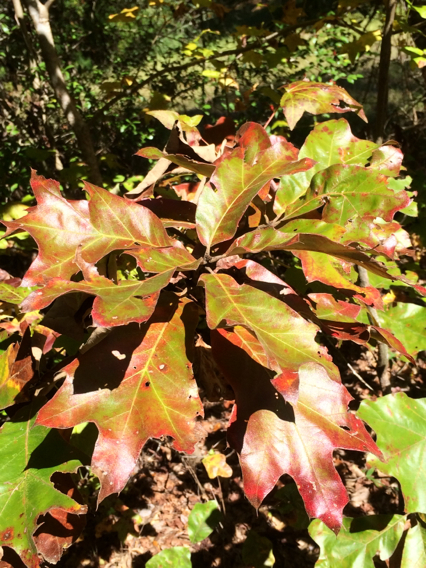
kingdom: Plantae
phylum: Tracheophyta
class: Magnoliopsida
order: Fagales
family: Fagaceae
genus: Quercus
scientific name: Quercus marilandica
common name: Blackjack oak
